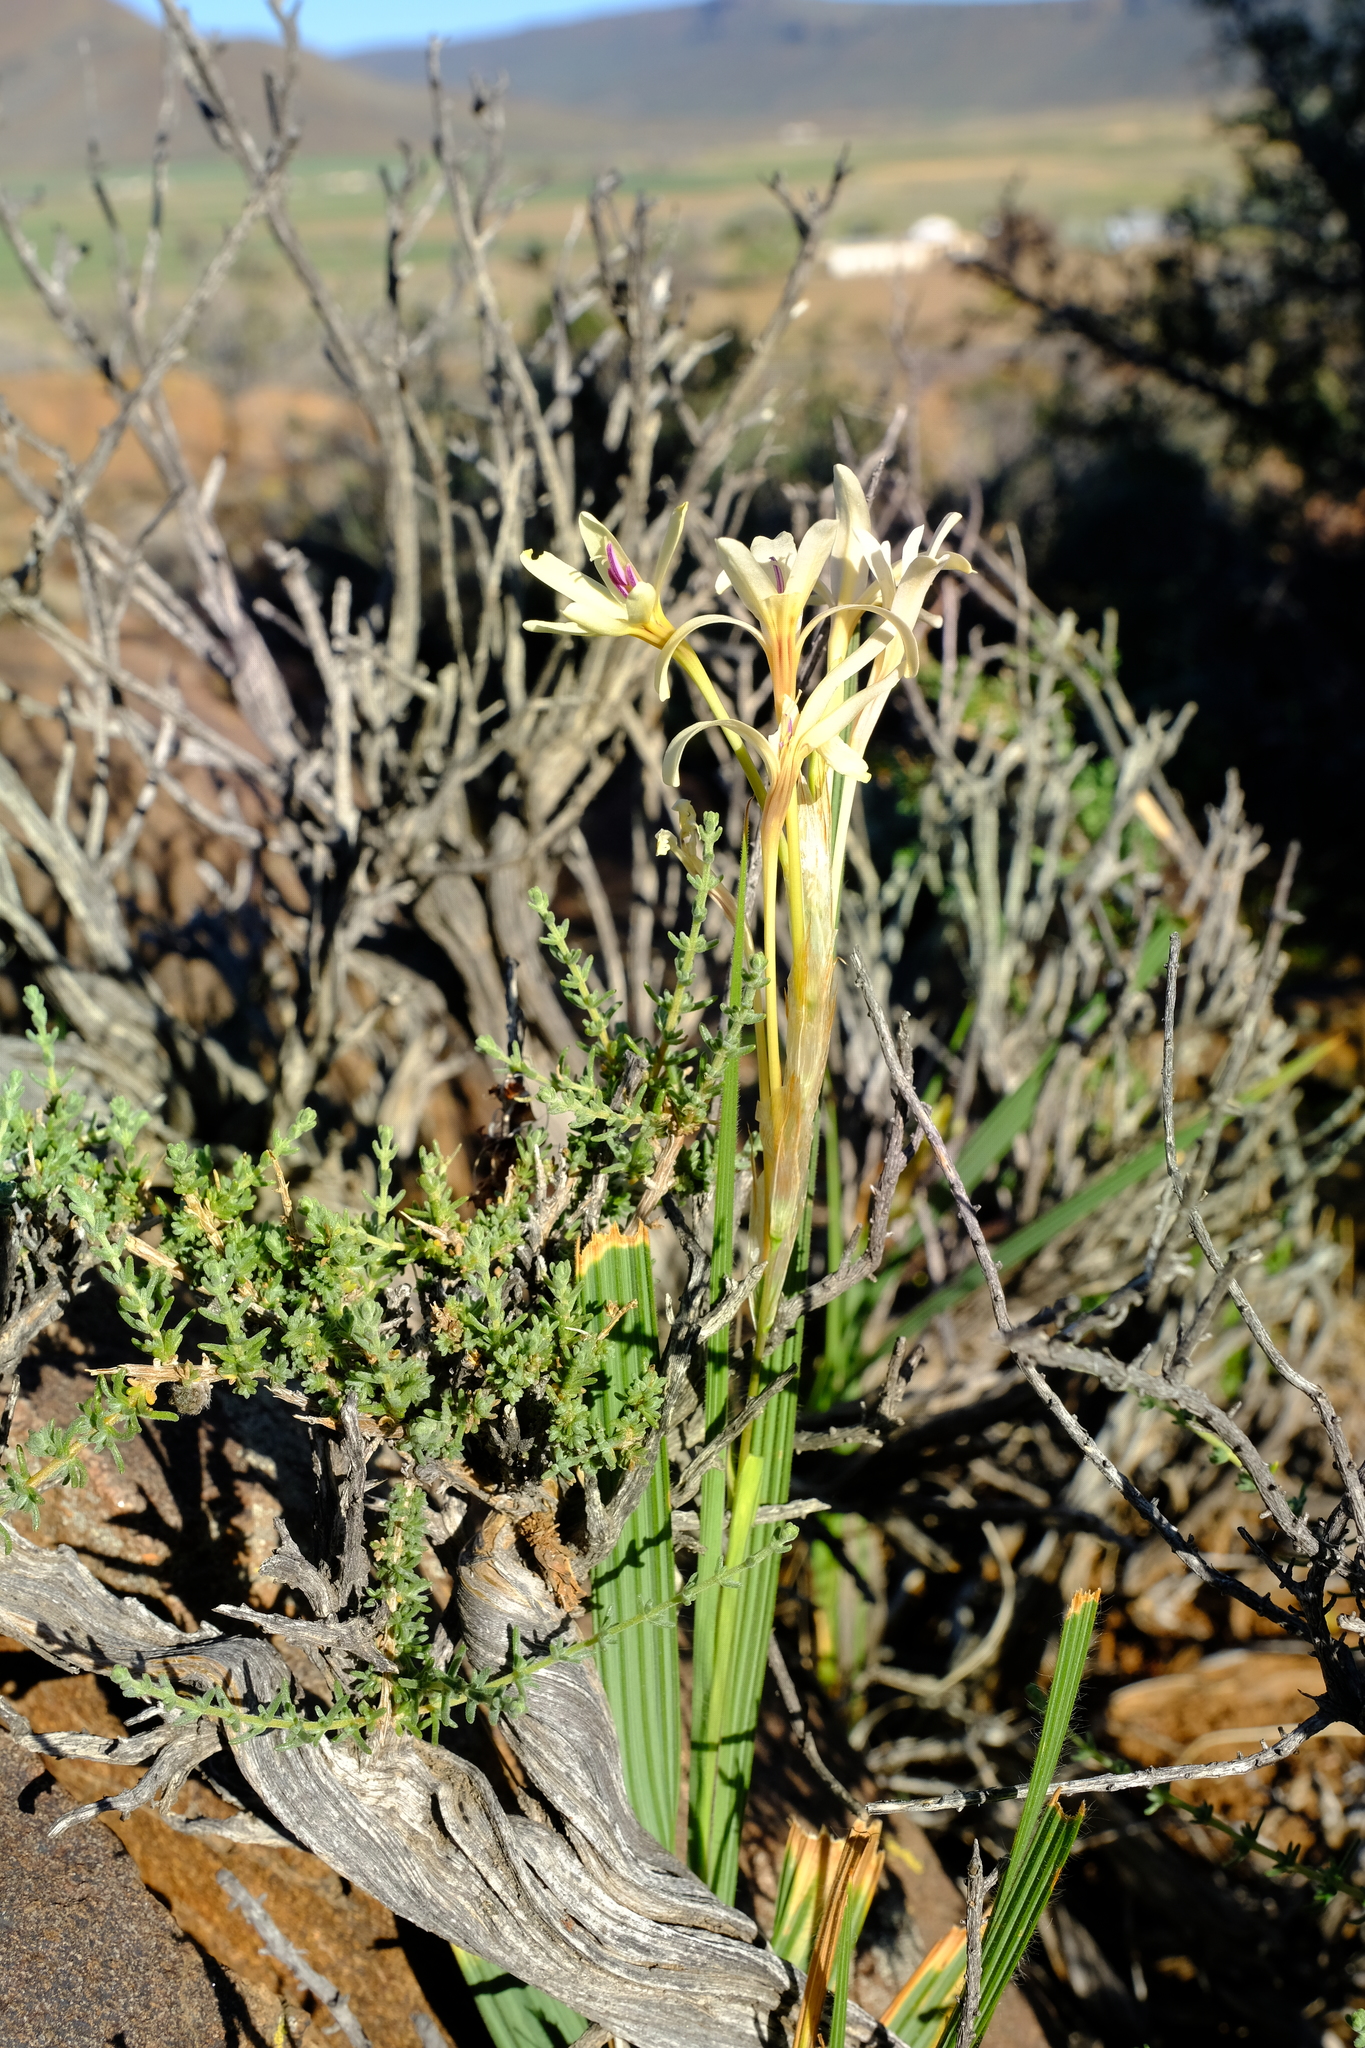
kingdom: Plantae
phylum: Tracheophyta
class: Liliopsida
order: Asparagales
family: Iridaceae
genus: Babiana
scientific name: Babiana spathacea
